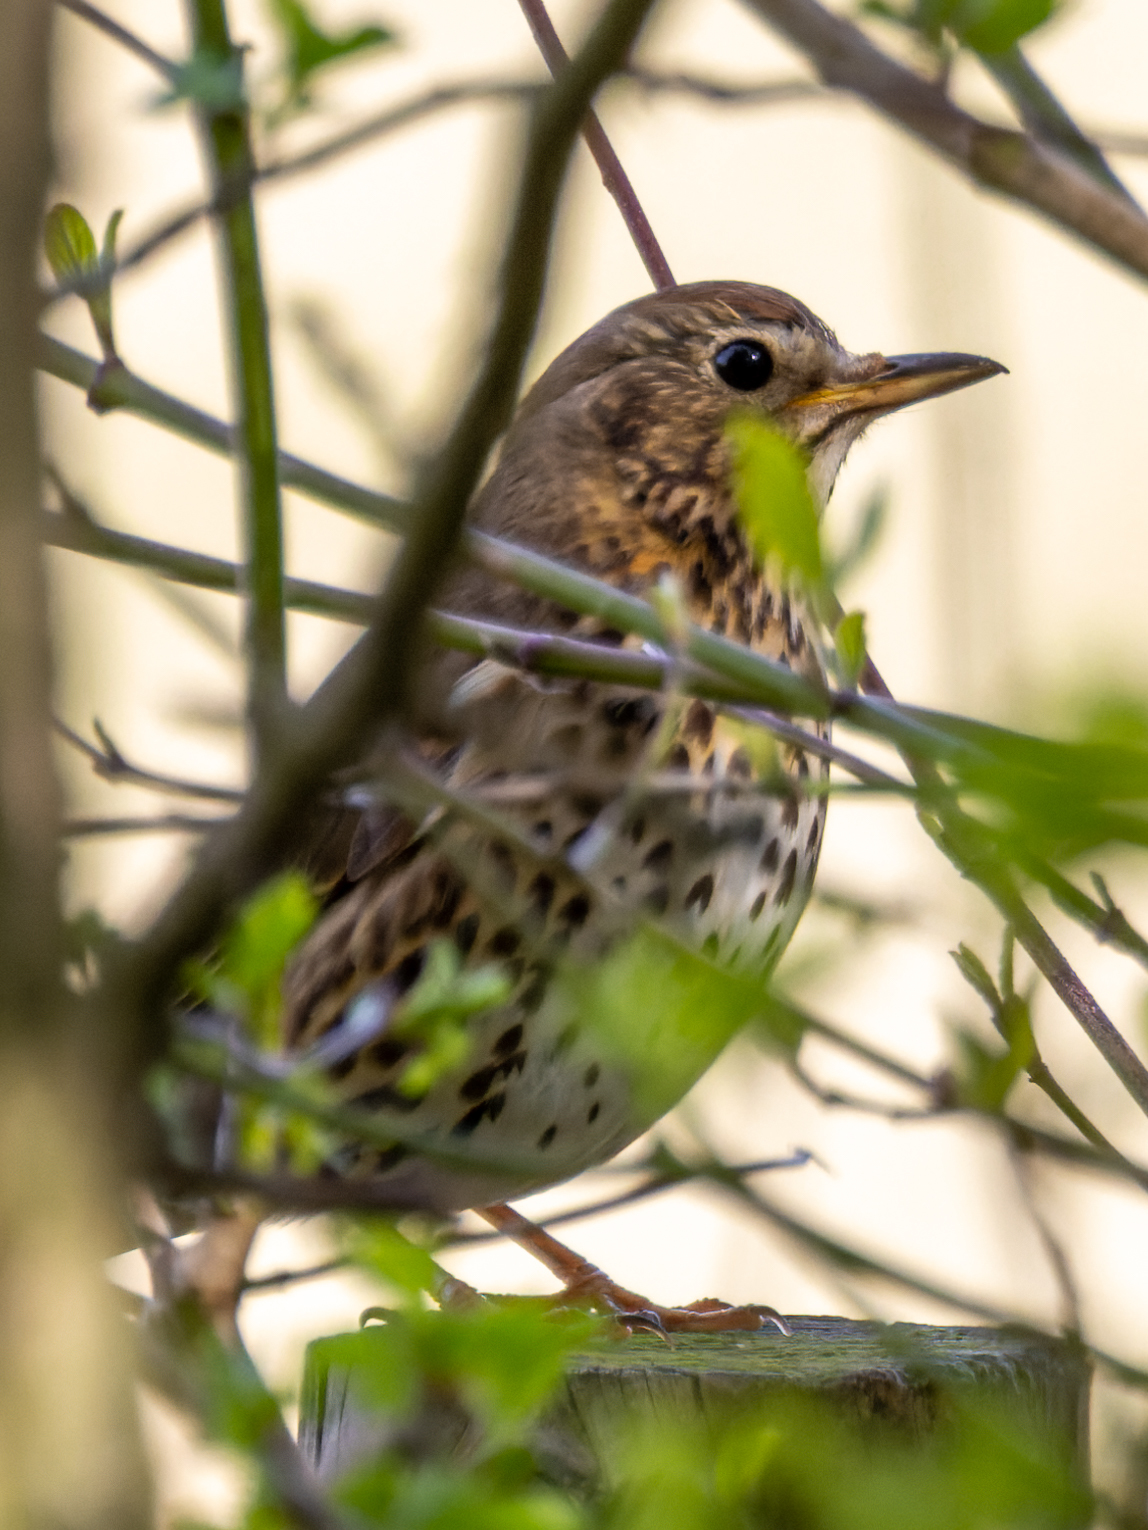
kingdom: Animalia
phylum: Chordata
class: Aves
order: Passeriformes
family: Turdidae
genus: Turdus
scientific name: Turdus philomelos
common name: Song thrush
